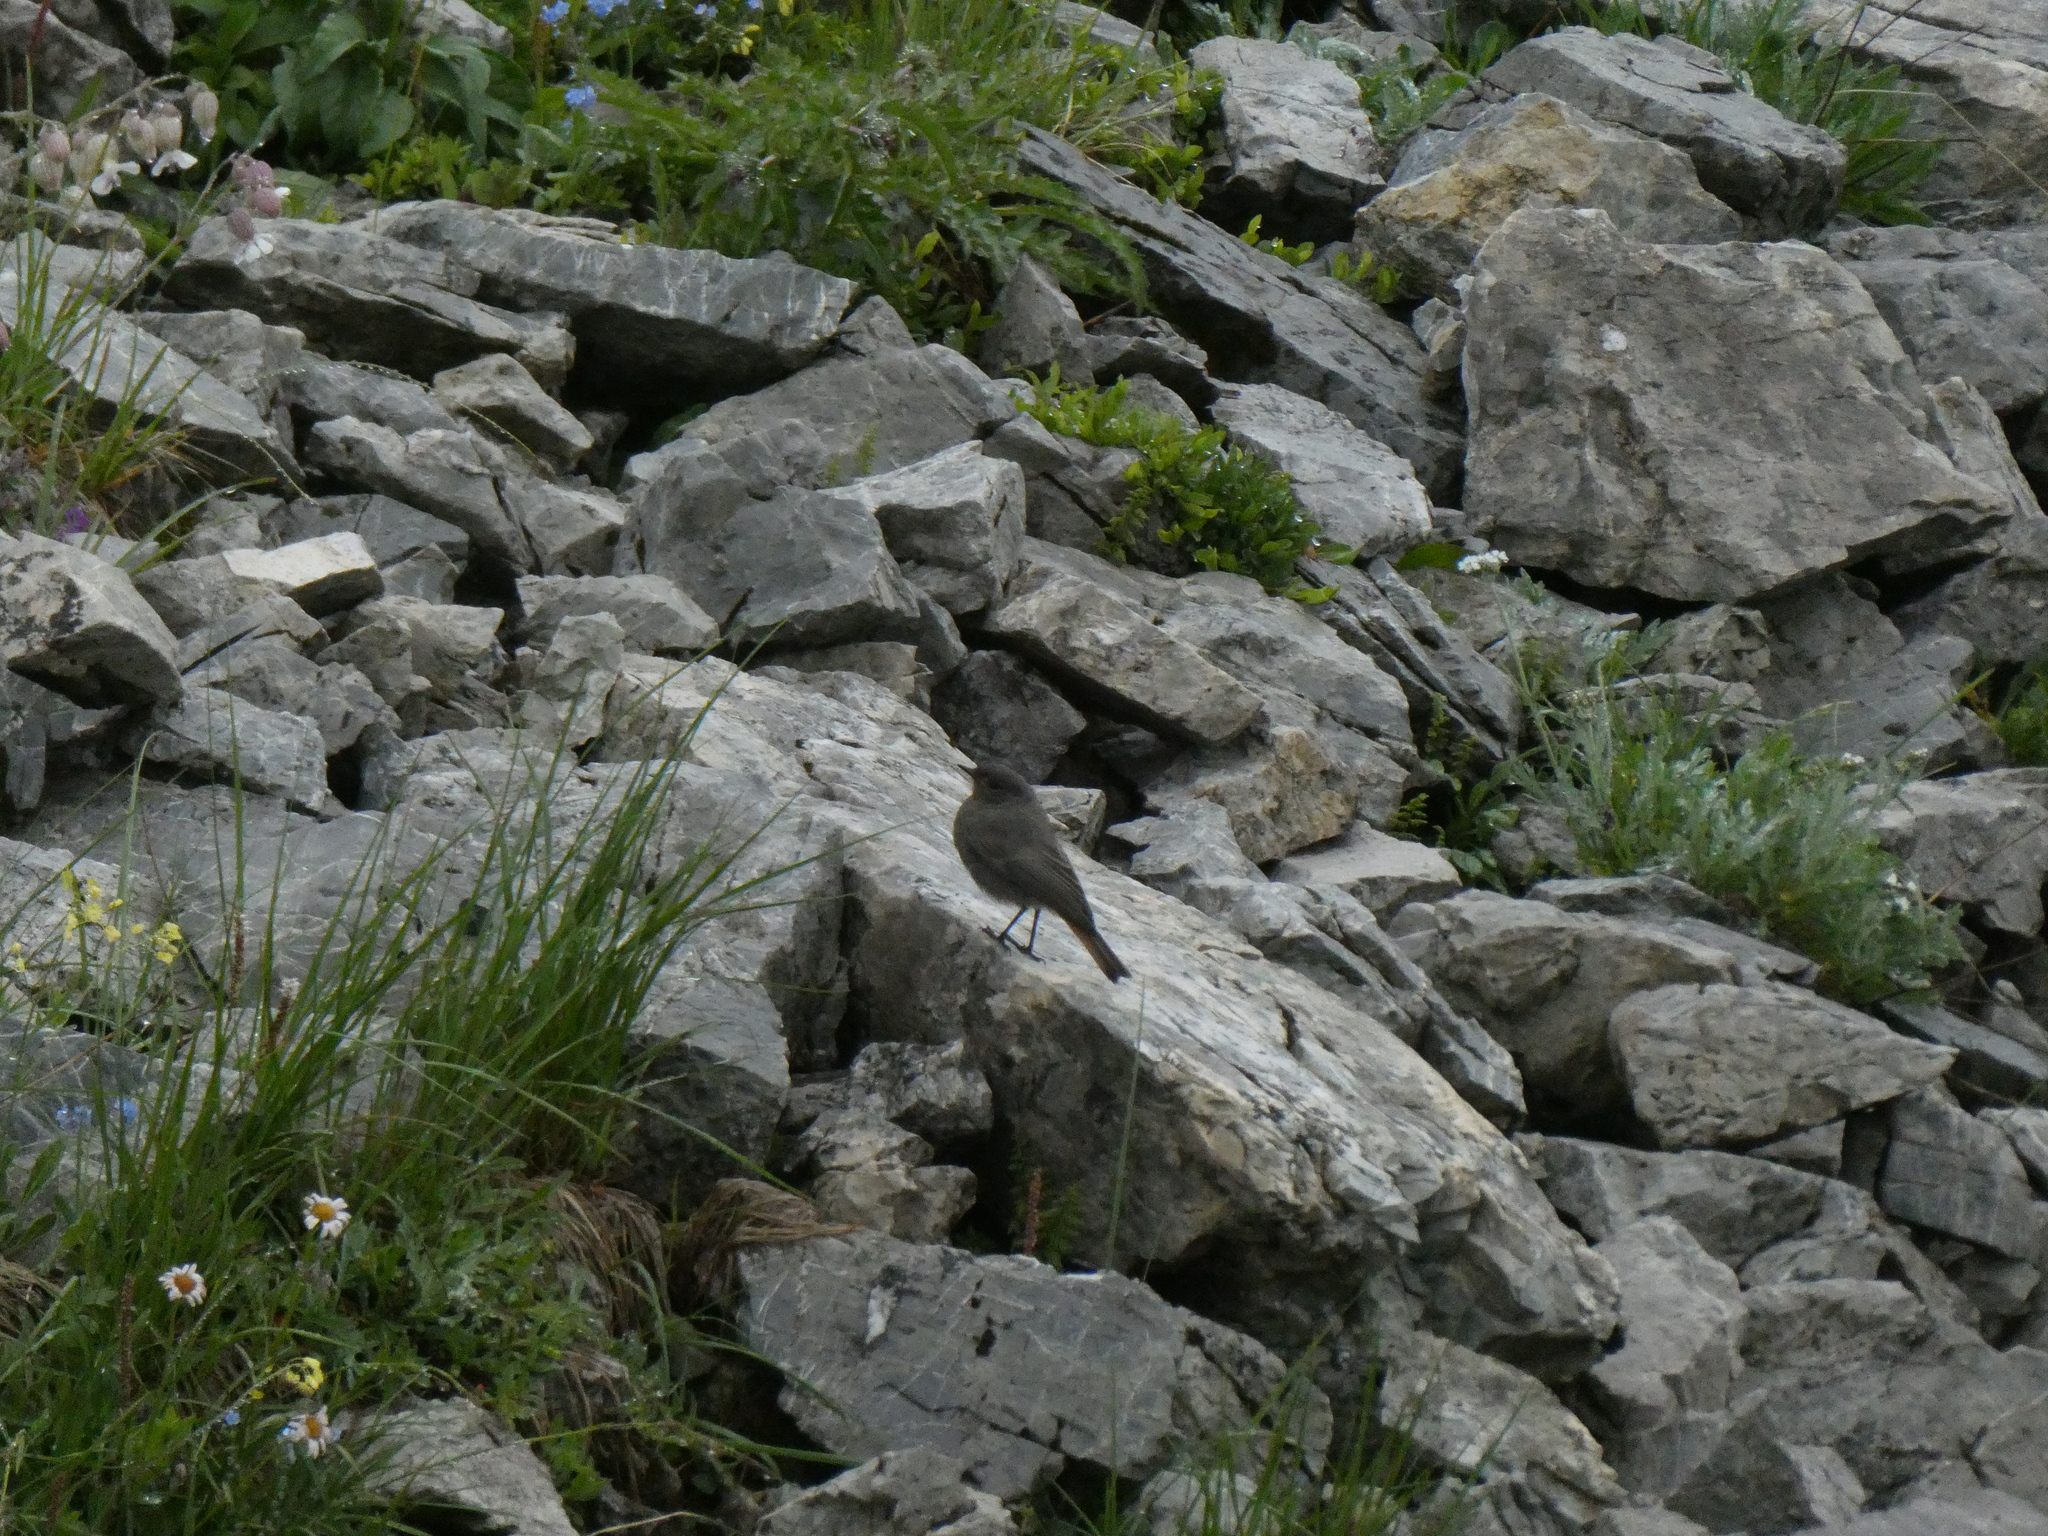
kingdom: Animalia
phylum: Chordata
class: Aves
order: Passeriformes
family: Muscicapidae
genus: Phoenicurus
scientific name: Phoenicurus ochruros
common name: Black redstart
